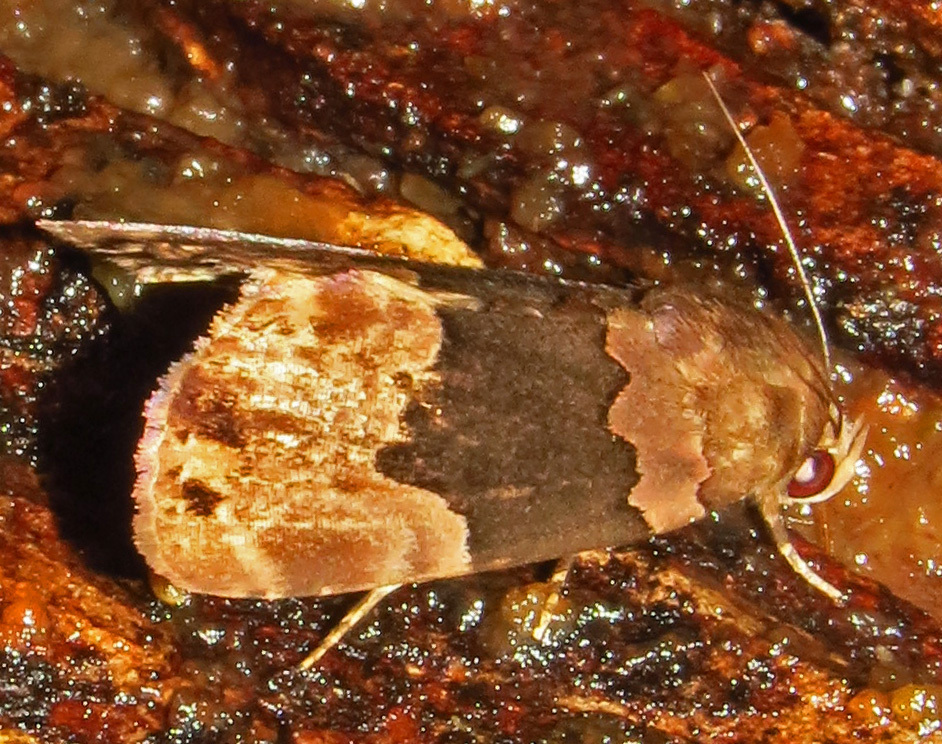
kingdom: Animalia
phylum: Arthropoda
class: Insecta
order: Lepidoptera
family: Erebidae
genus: Dinumma
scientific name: Dinumma deponens
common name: Purplish moth
